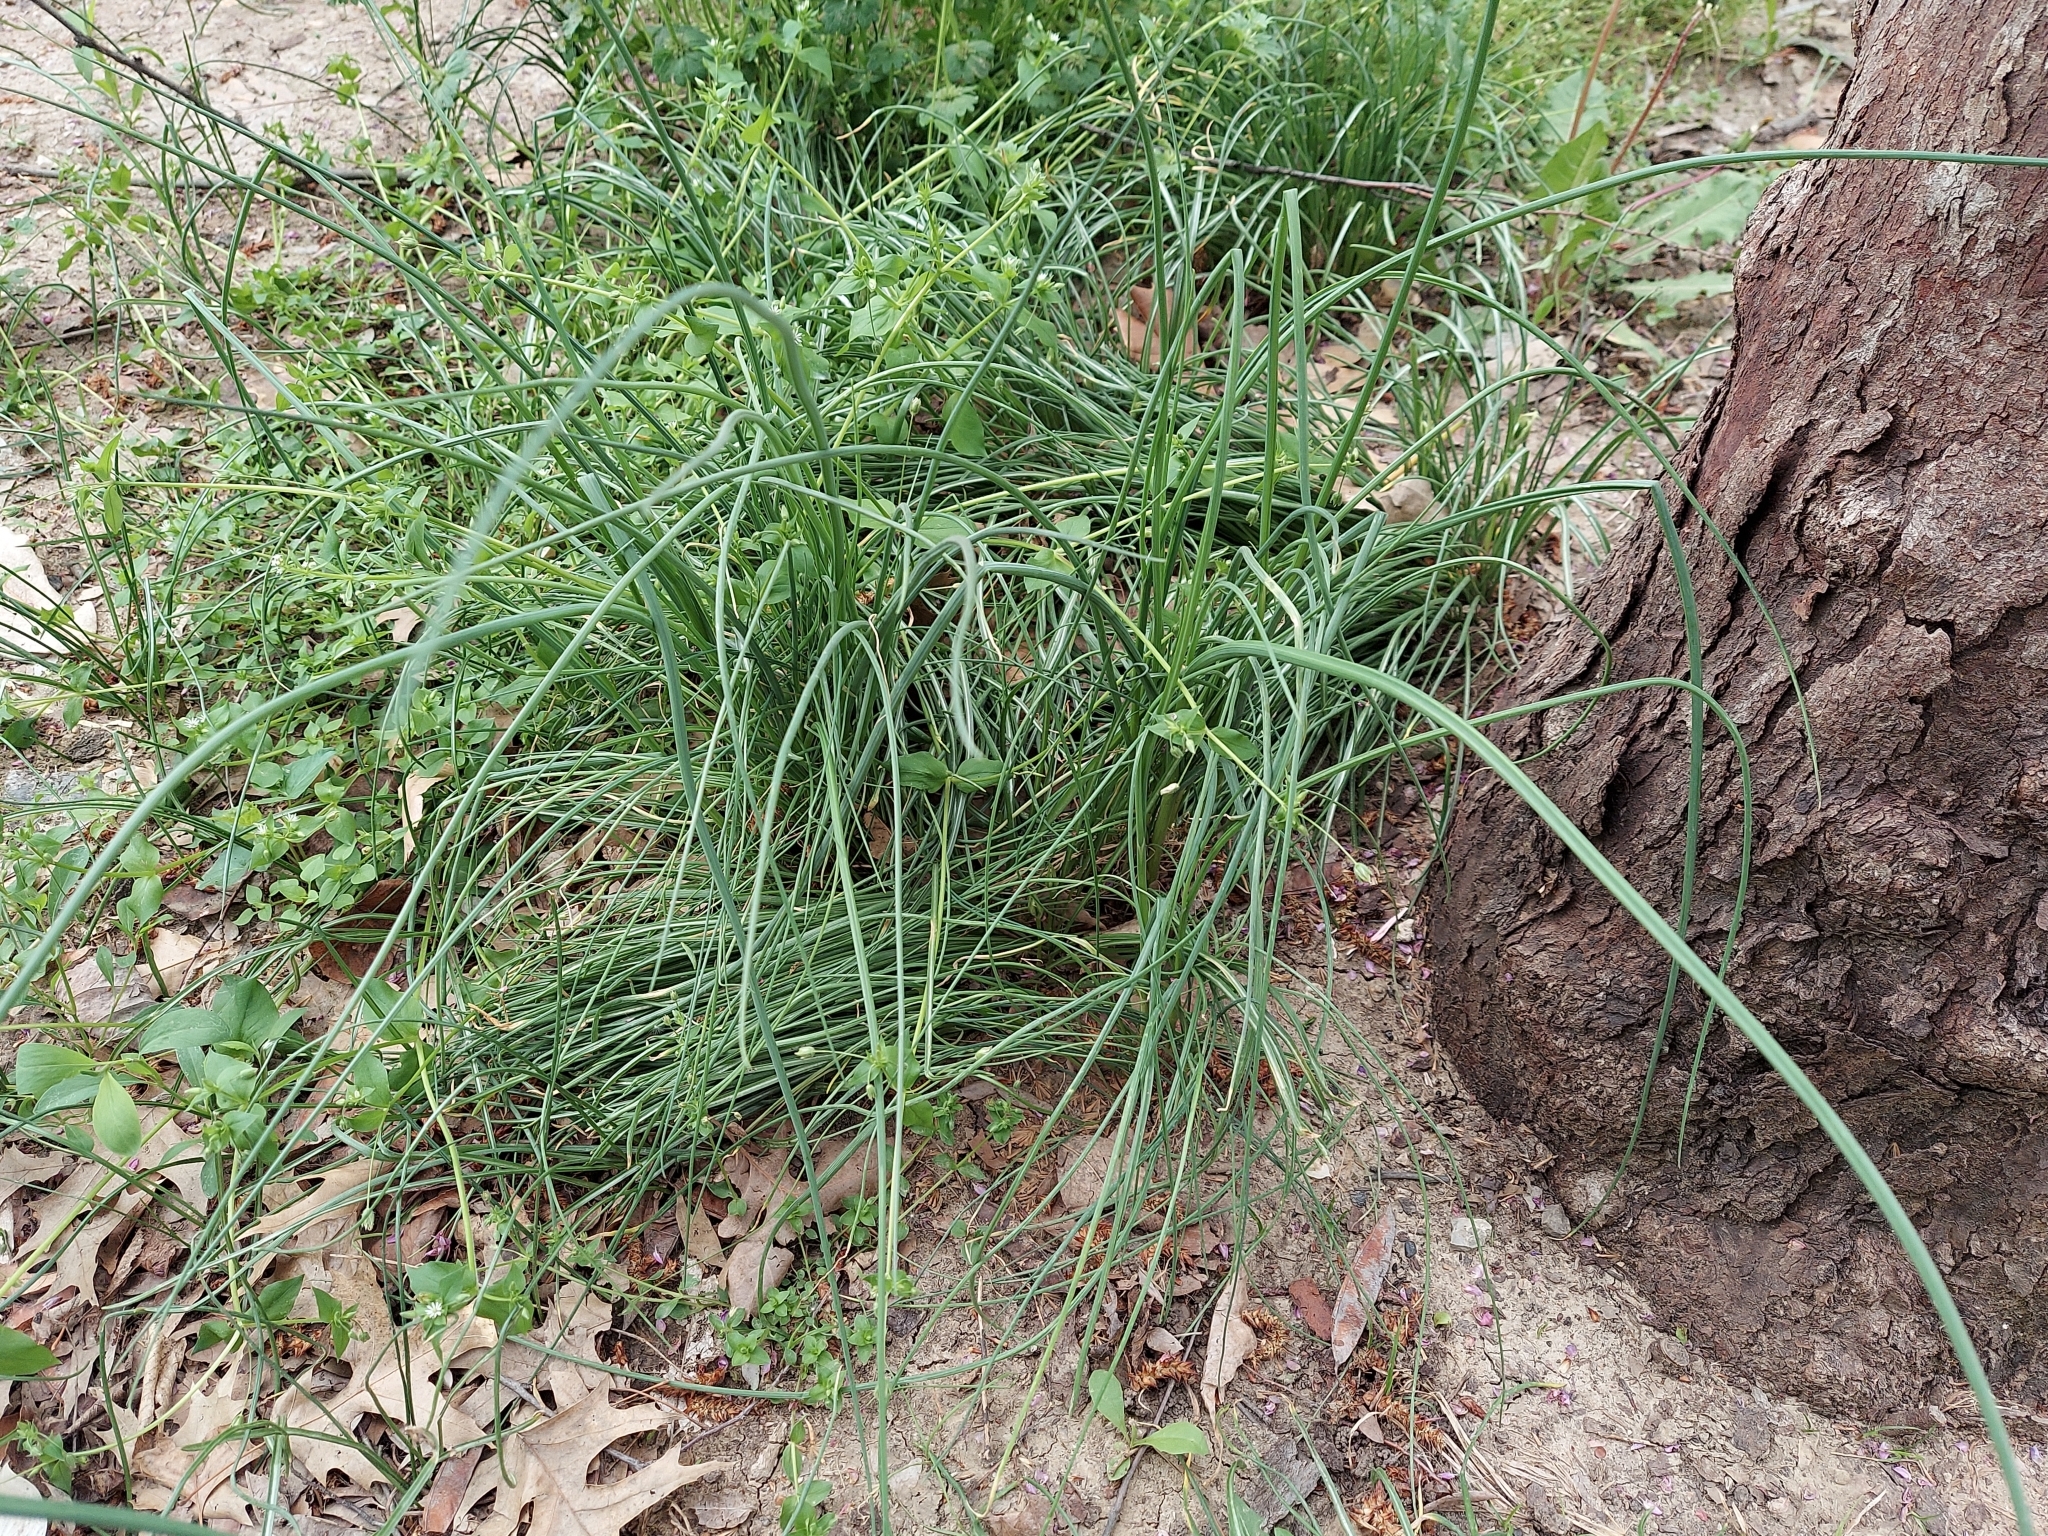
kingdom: Plantae
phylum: Tracheophyta
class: Liliopsida
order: Asparagales
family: Amaryllidaceae
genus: Allium
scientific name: Allium vineale
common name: Crow garlic
